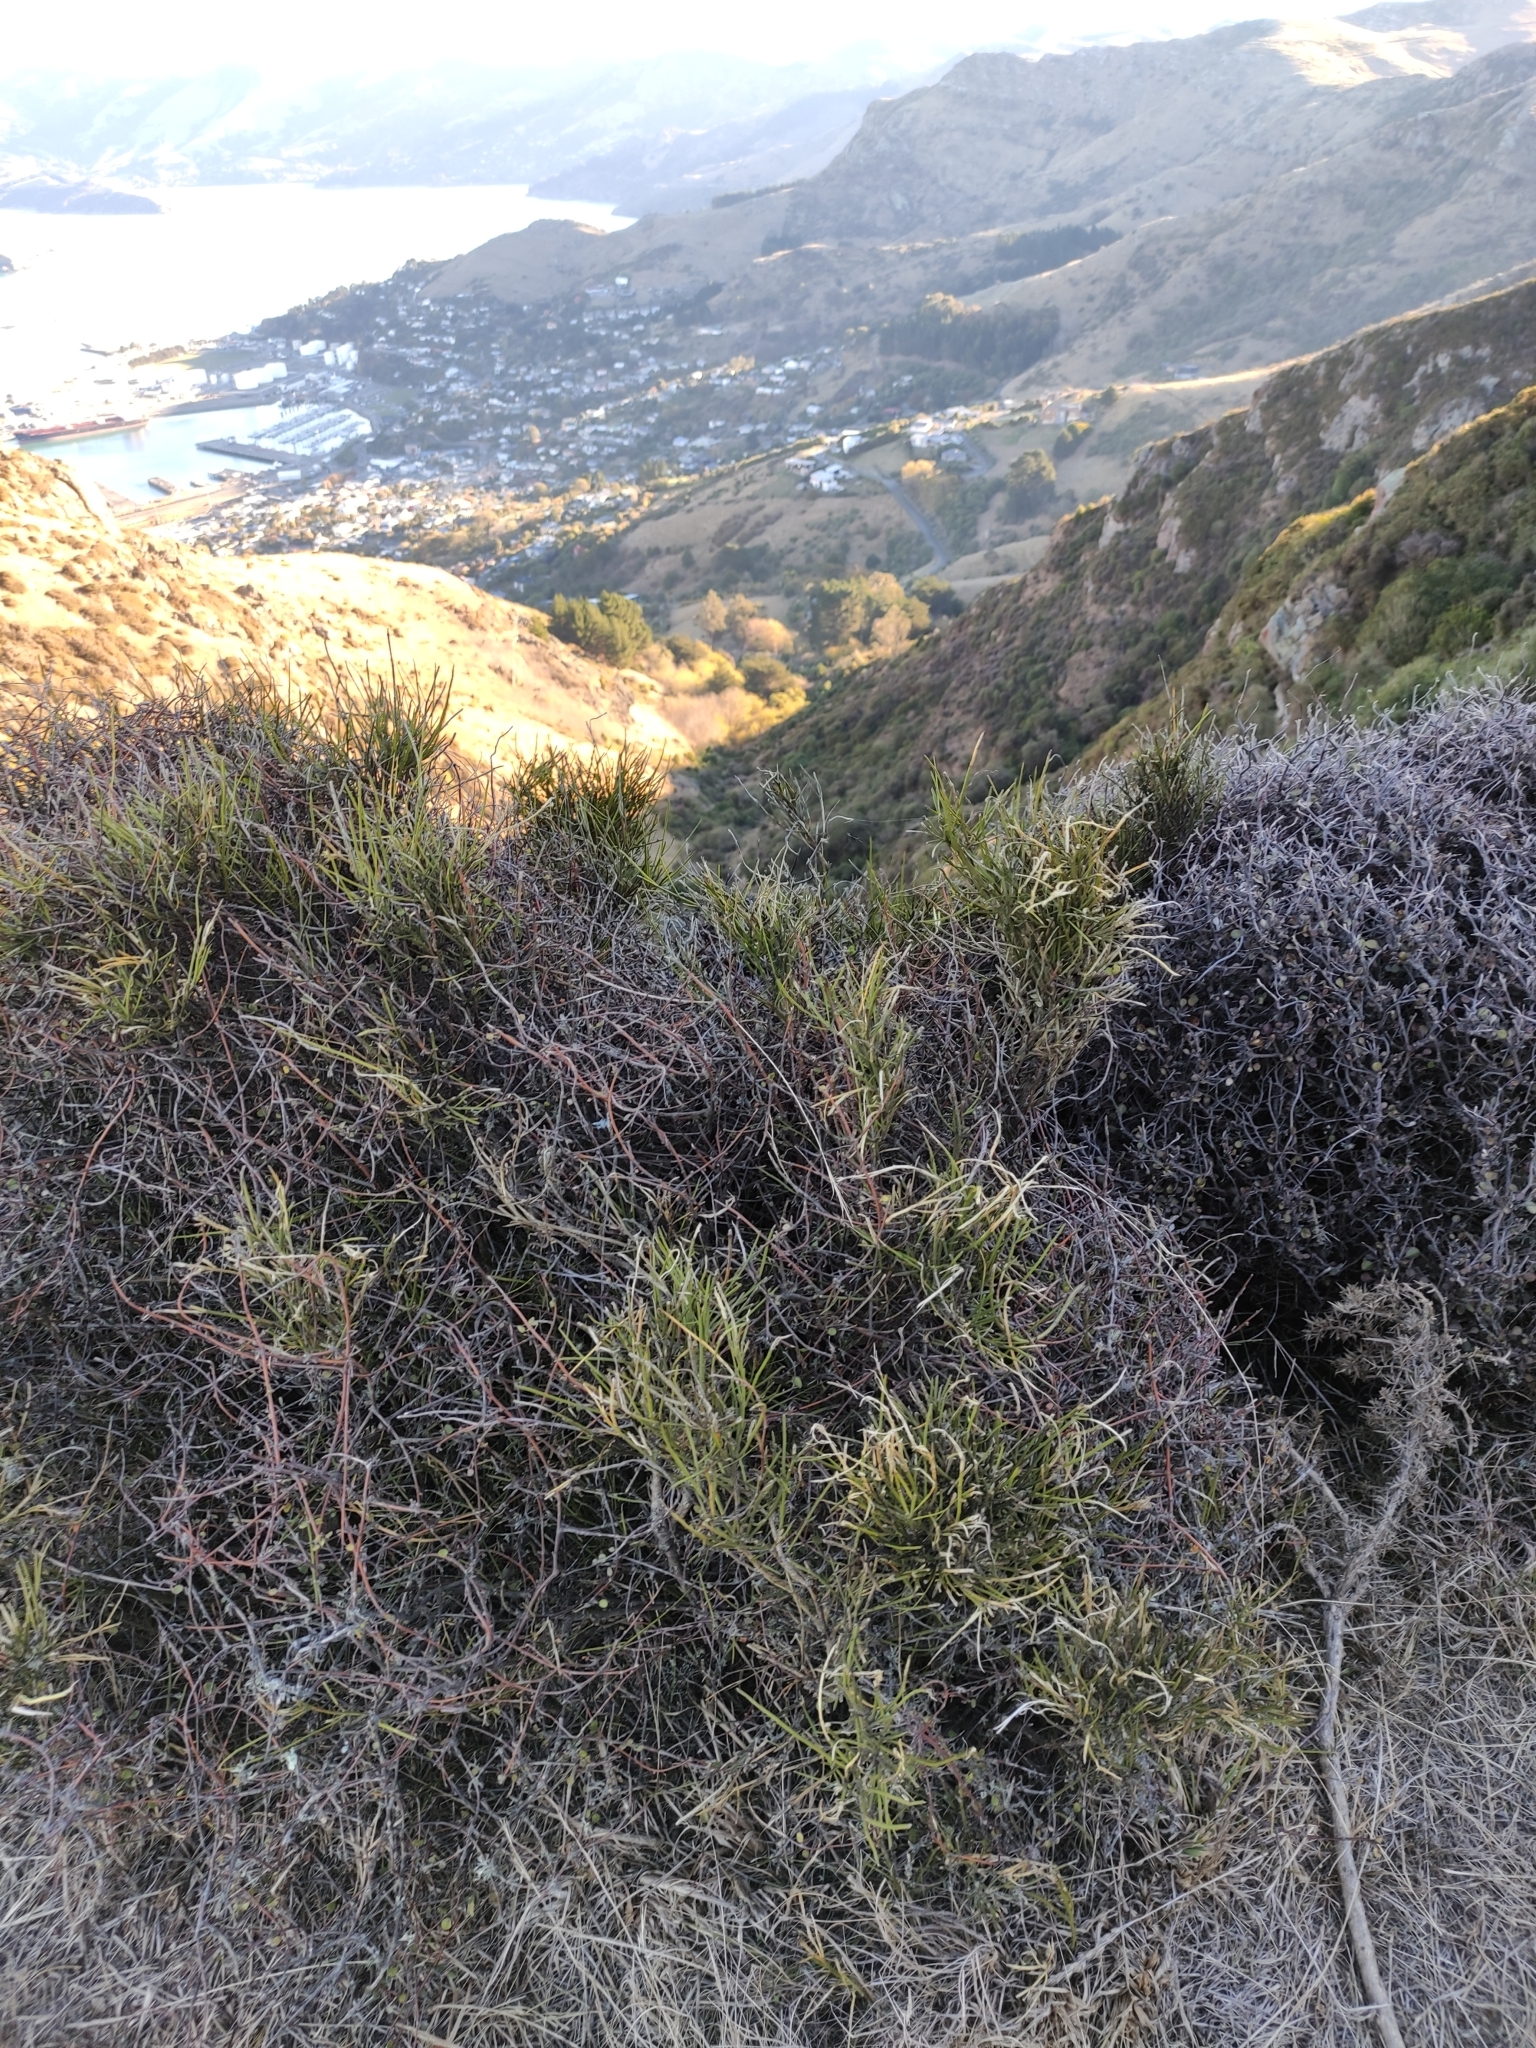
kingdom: Plantae
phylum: Tracheophyta
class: Magnoliopsida
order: Fabales
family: Fabaceae
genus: Carmichaelia
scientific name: Carmichaelia australis
